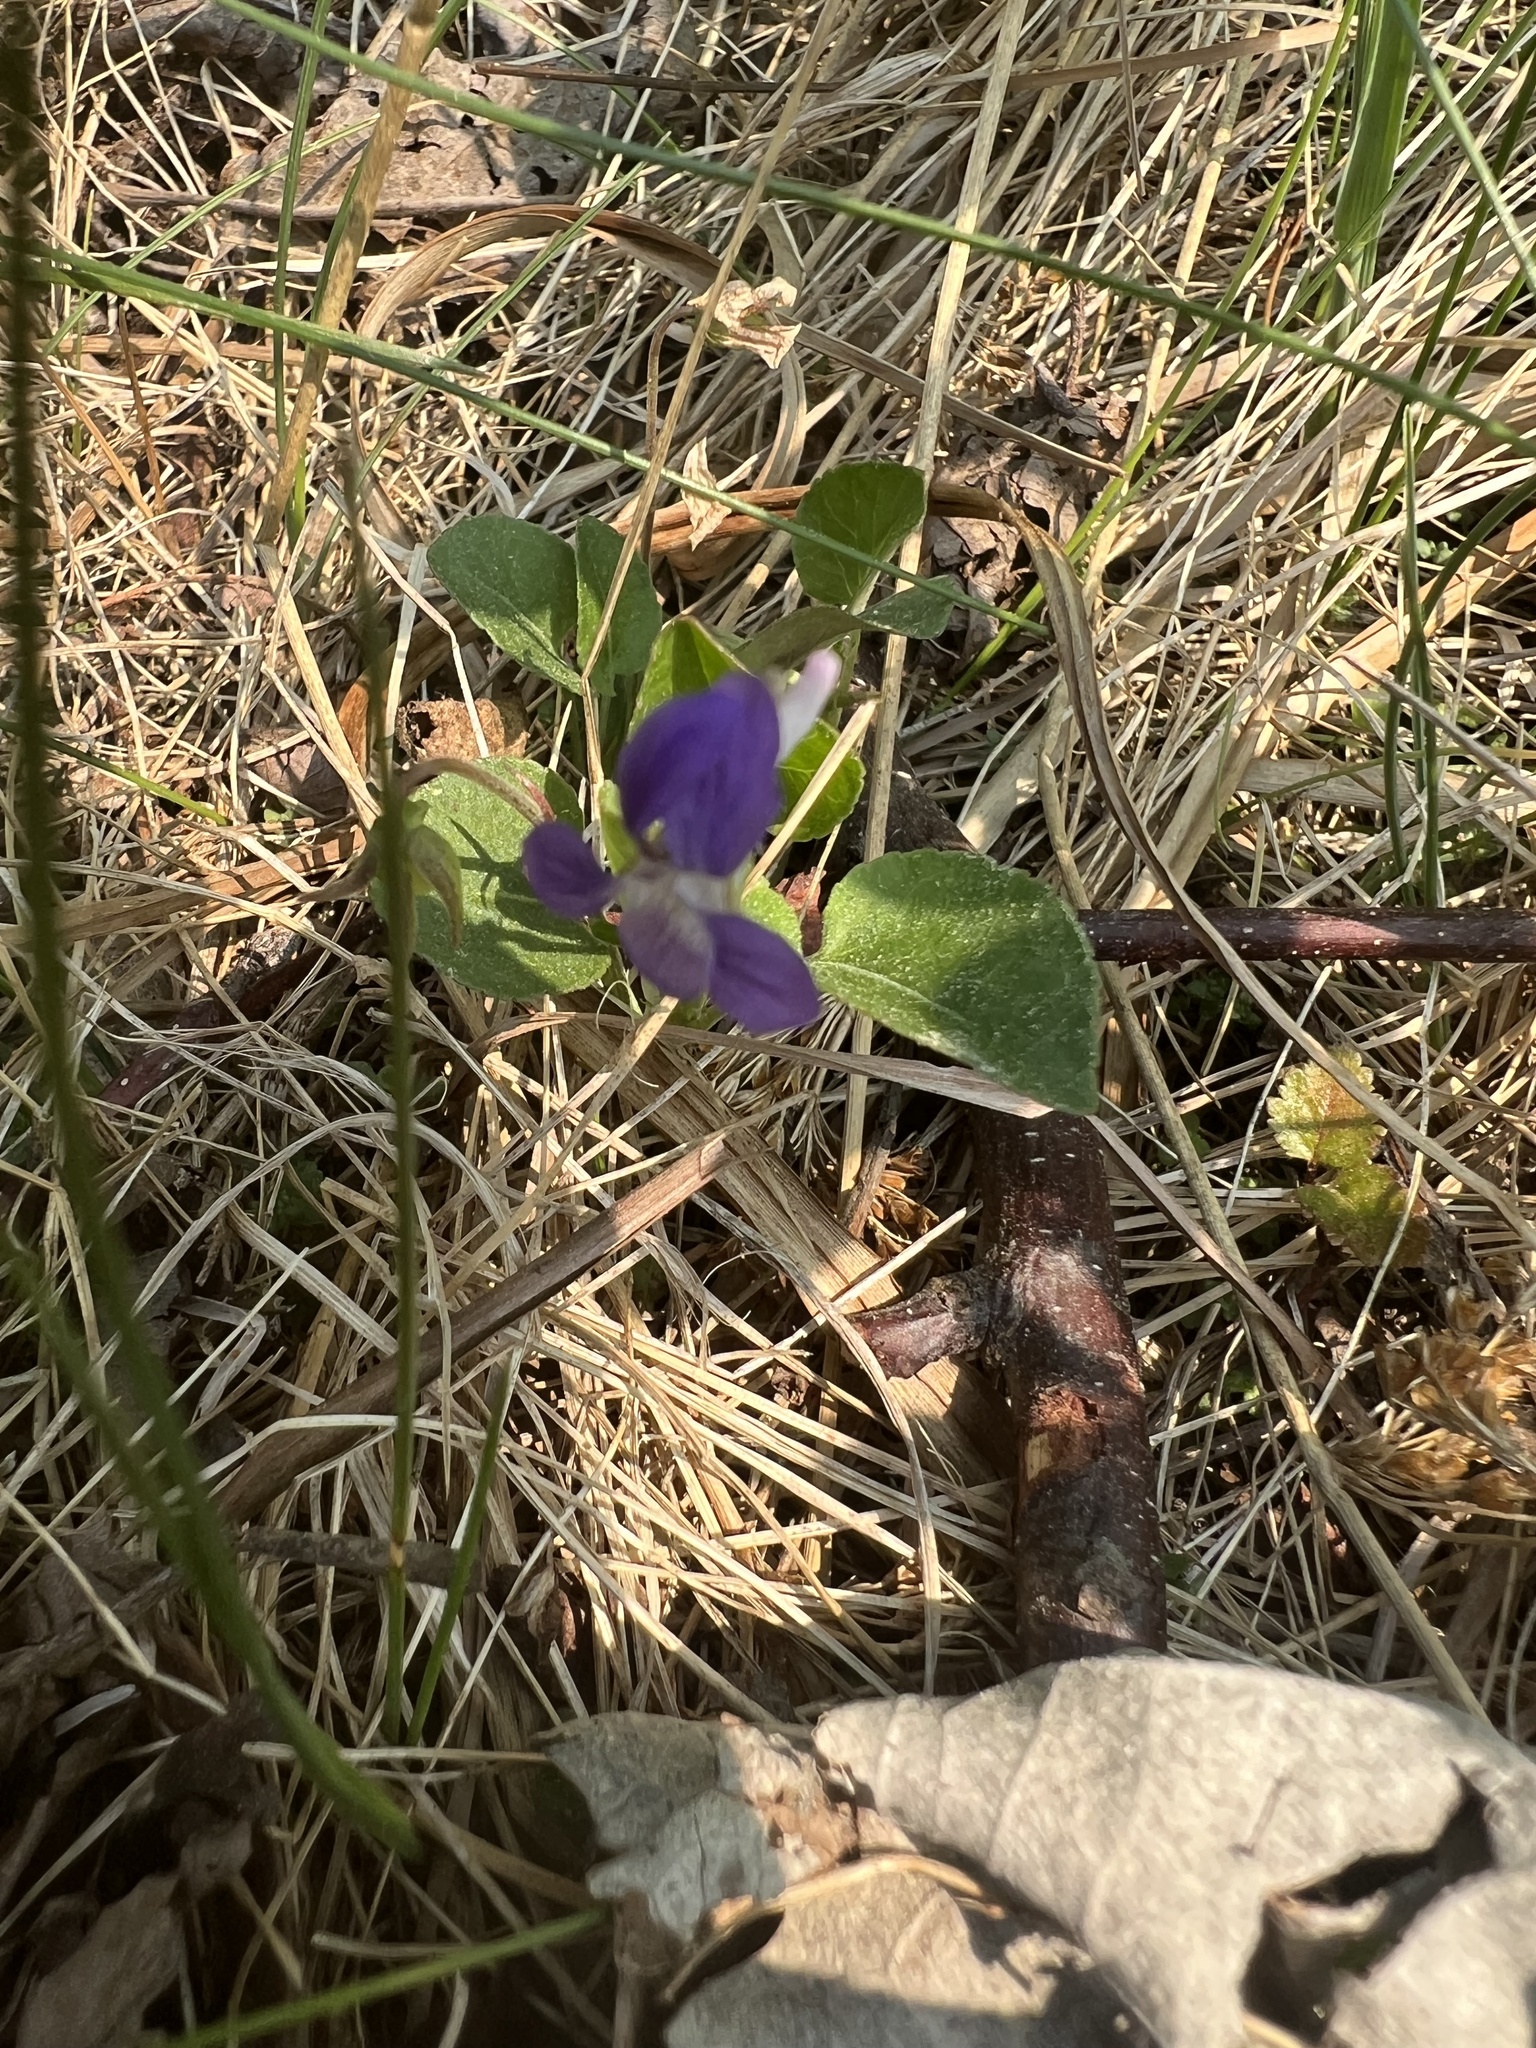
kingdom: Plantae
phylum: Tracheophyta
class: Magnoliopsida
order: Malpighiales
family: Violaceae
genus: Viola
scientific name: Viola adunca
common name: Sand violet
